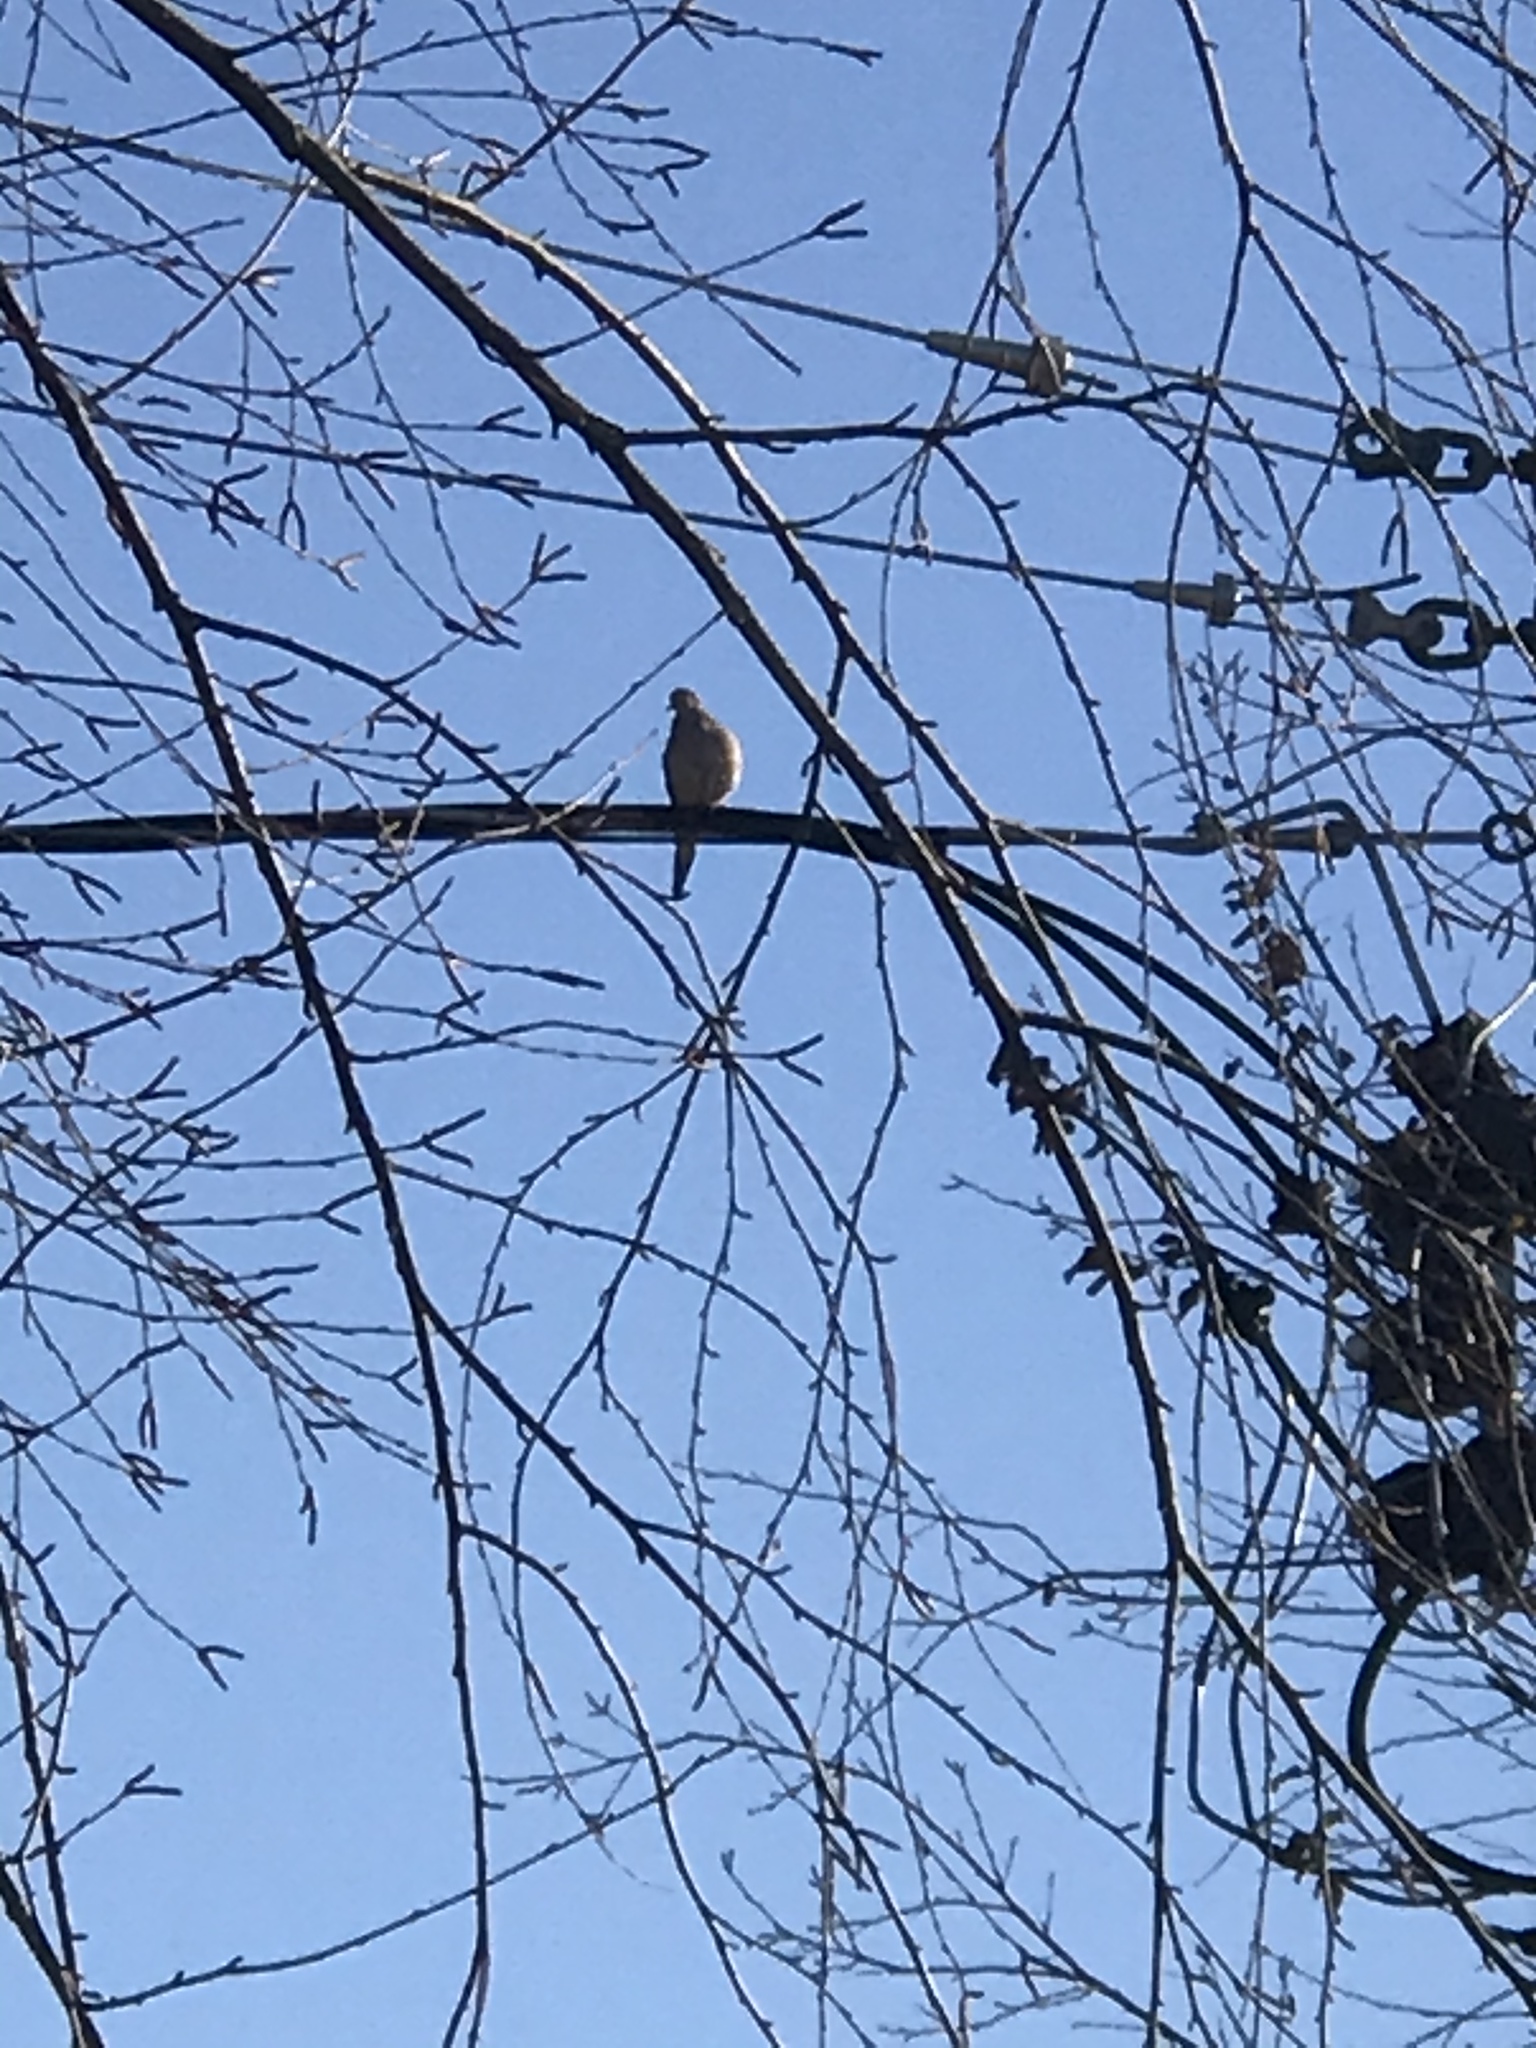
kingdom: Animalia
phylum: Chordata
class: Aves
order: Columbiformes
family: Columbidae
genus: Zenaida
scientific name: Zenaida macroura
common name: Mourning dove
